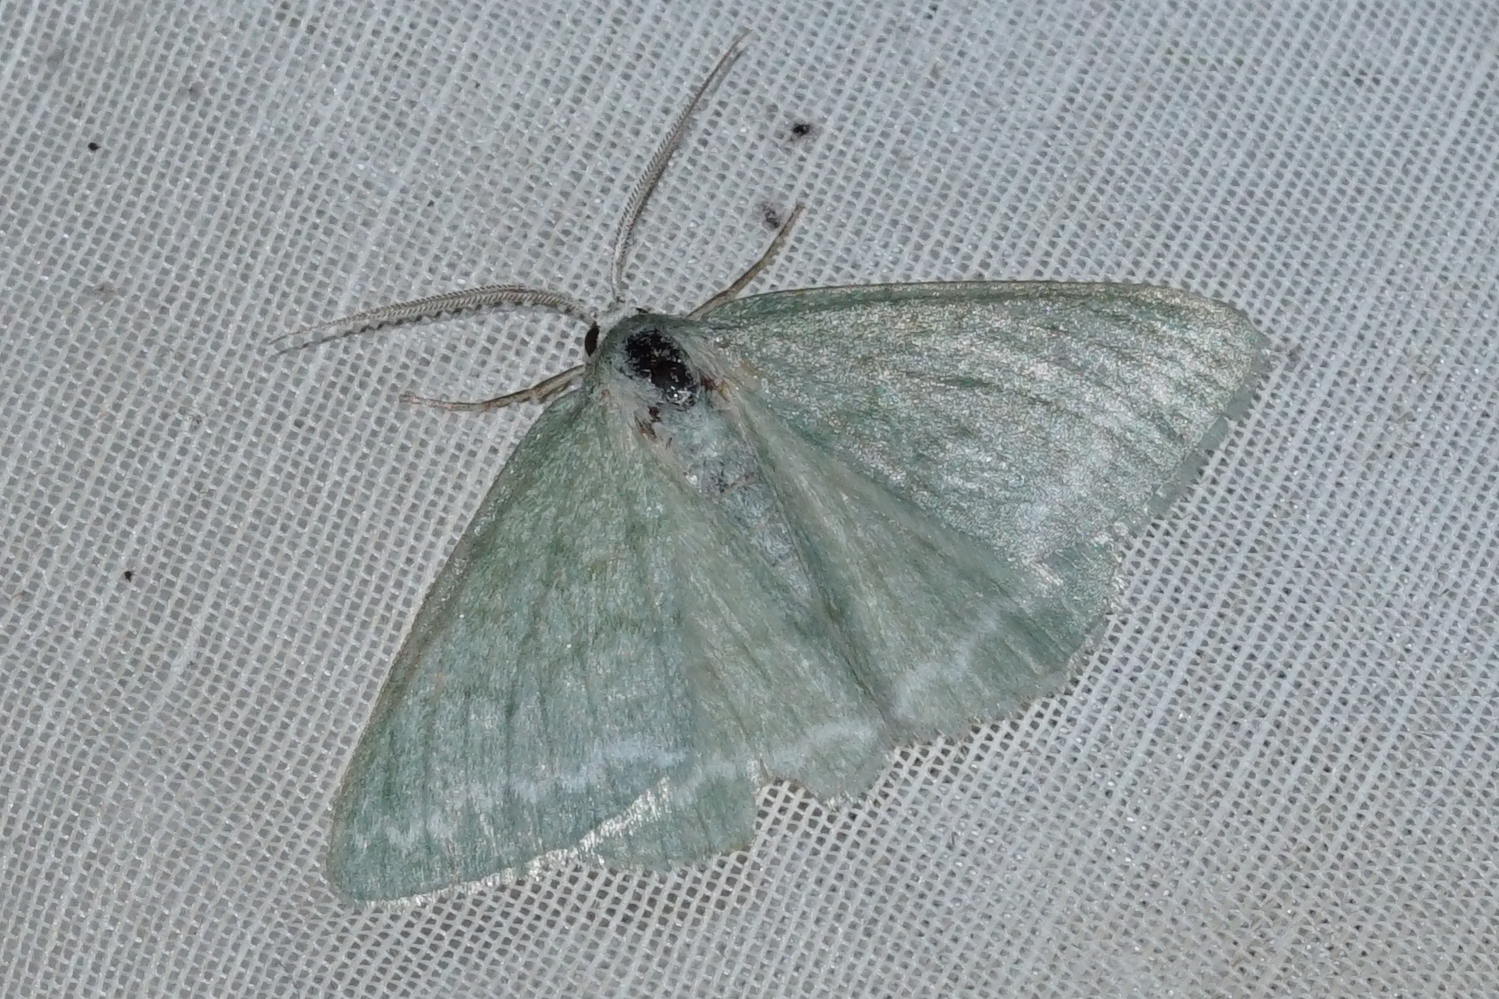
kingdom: Animalia
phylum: Arthropoda
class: Insecta
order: Lepidoptera
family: Geometridae
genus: Pseudoterpna
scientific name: Pseudoterpna pruinata
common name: Grass emerald
